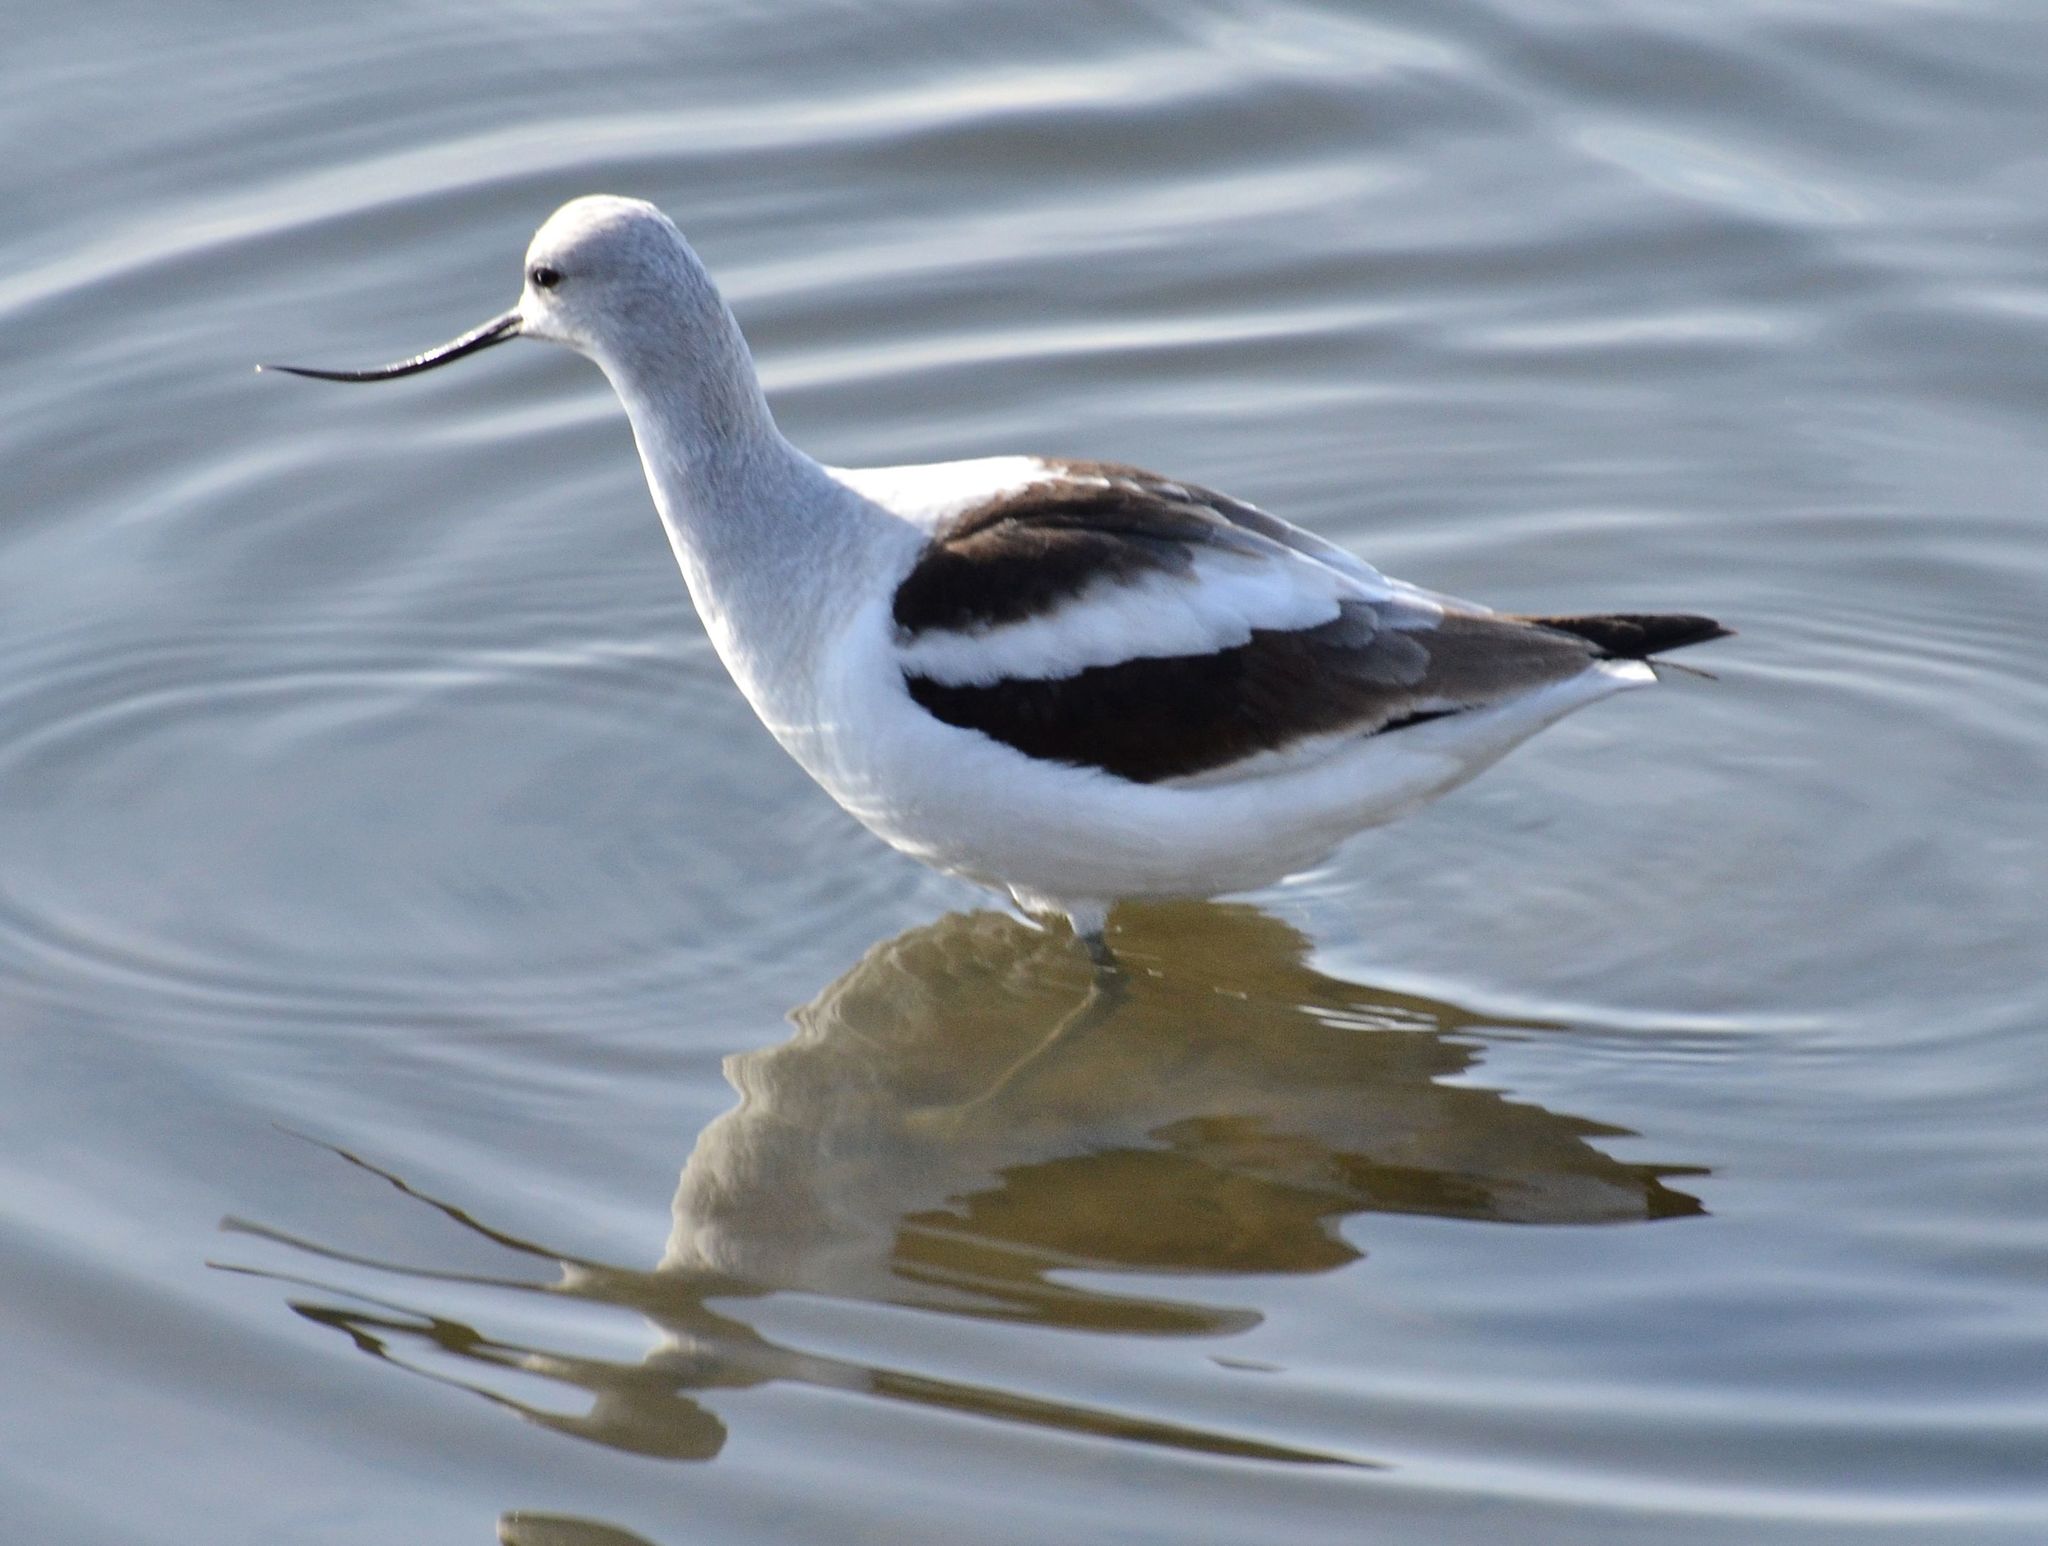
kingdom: Animalia
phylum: Chordata
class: Aves
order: Charadriiformes
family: Recurvirostridae
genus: Recurvirostra
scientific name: Recurvirostra americana
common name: American avocet
